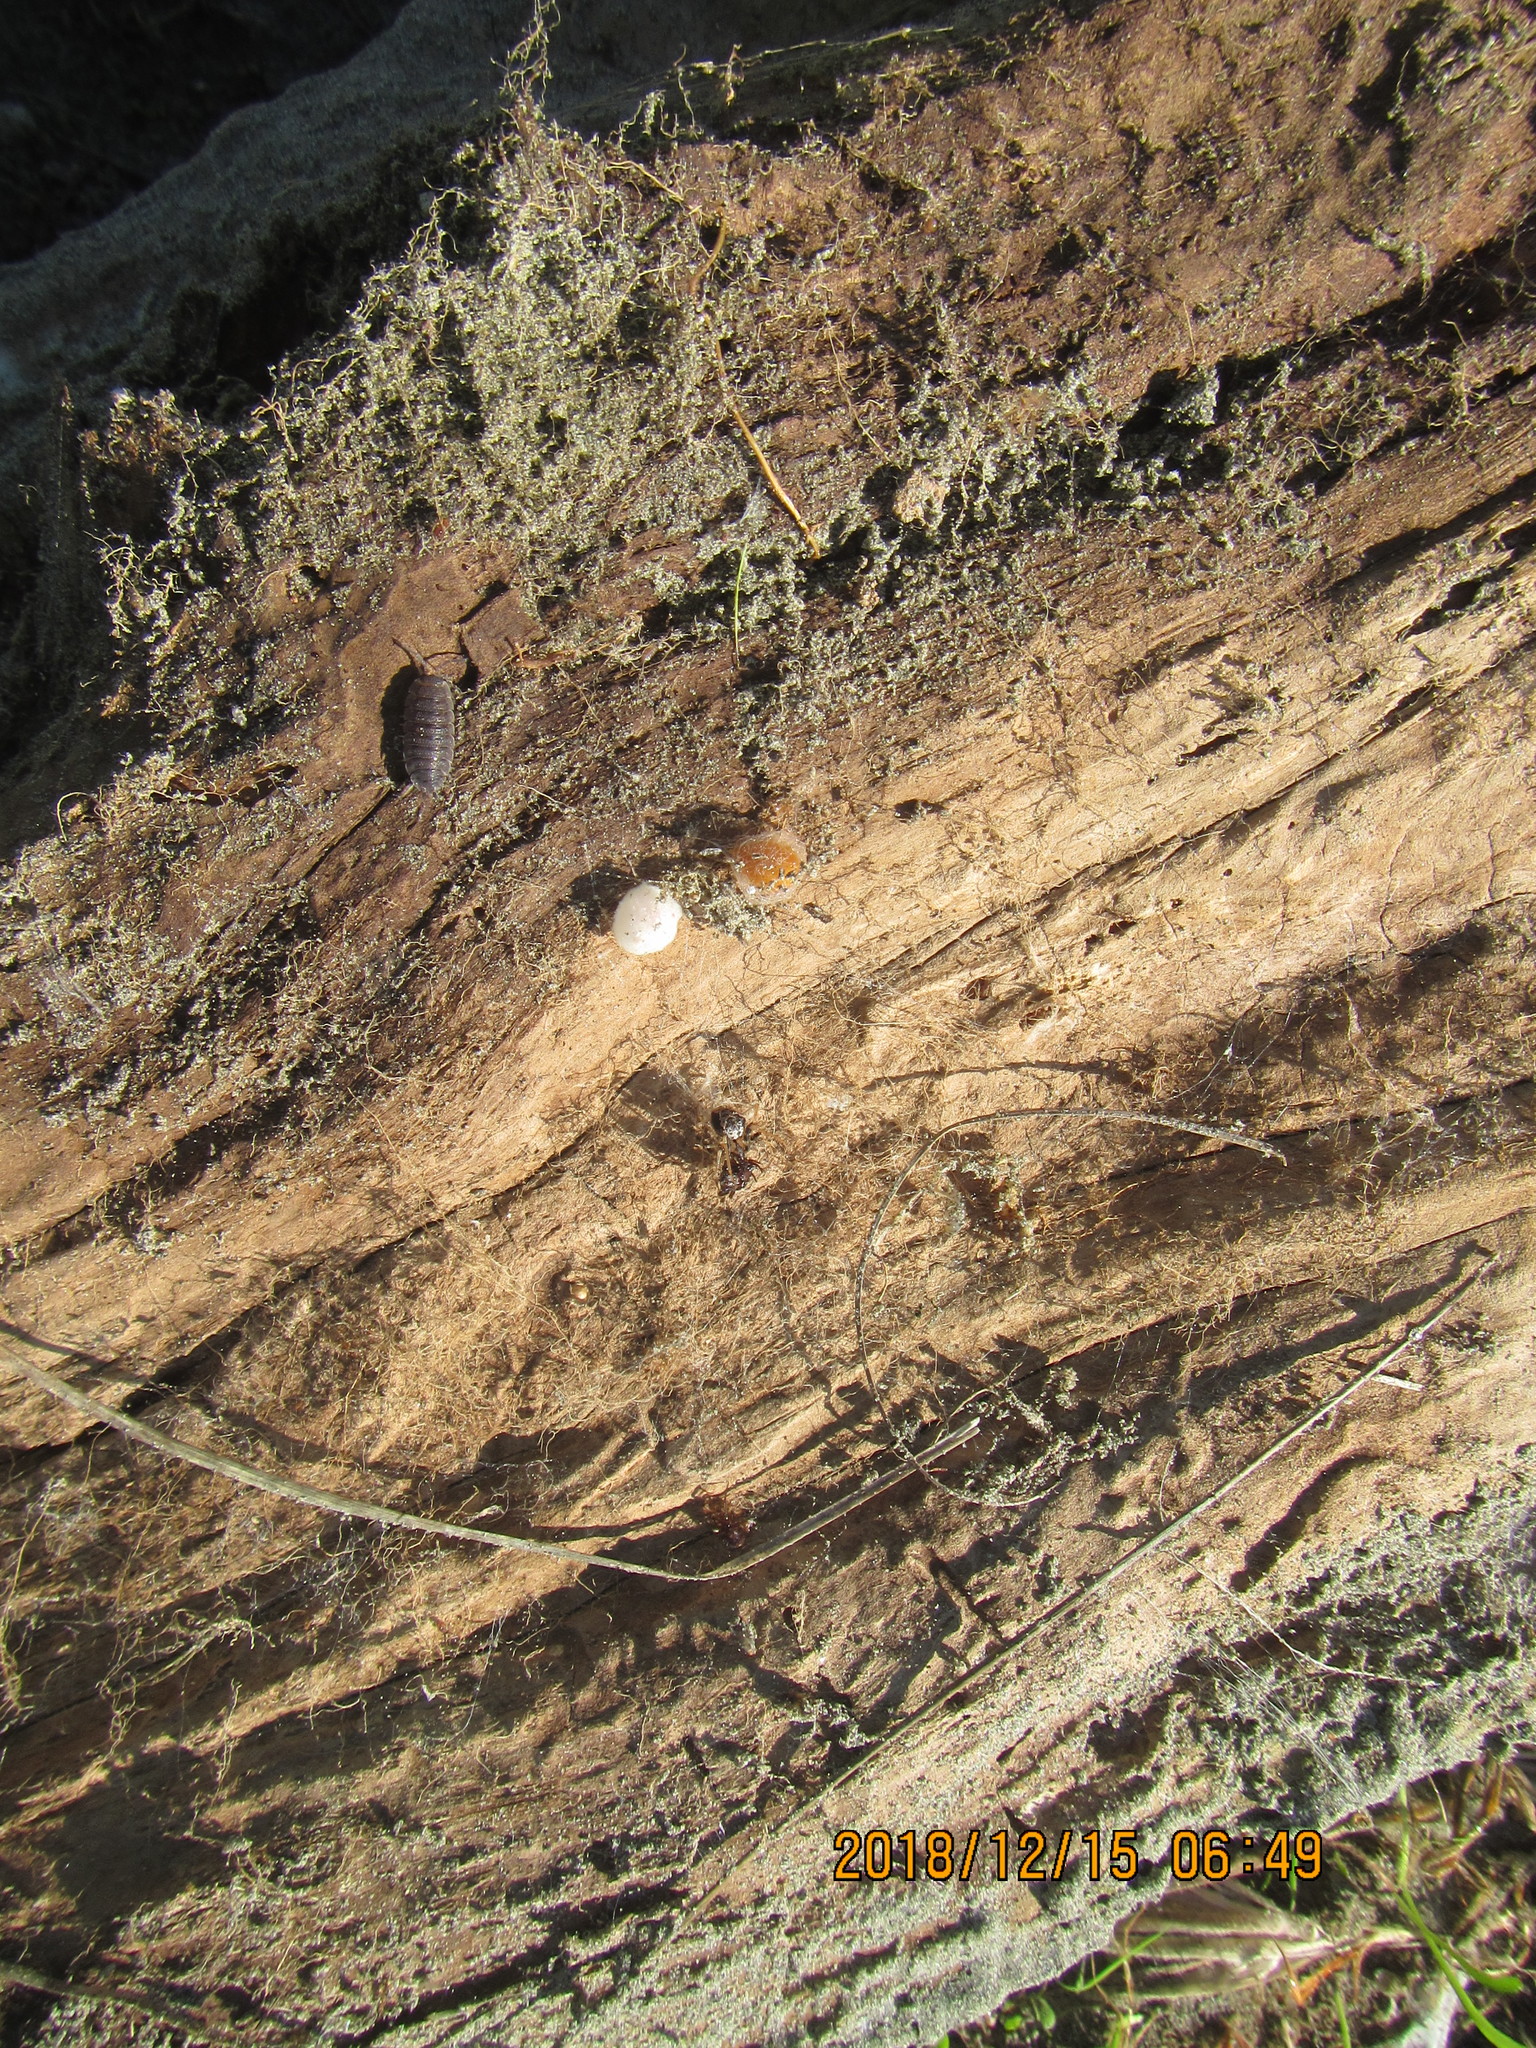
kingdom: Animalia
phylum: Arthropoda
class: Arachnida
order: Araneae
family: Mimetidae
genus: Australomimetus
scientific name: Australomimetus hartleyensis
